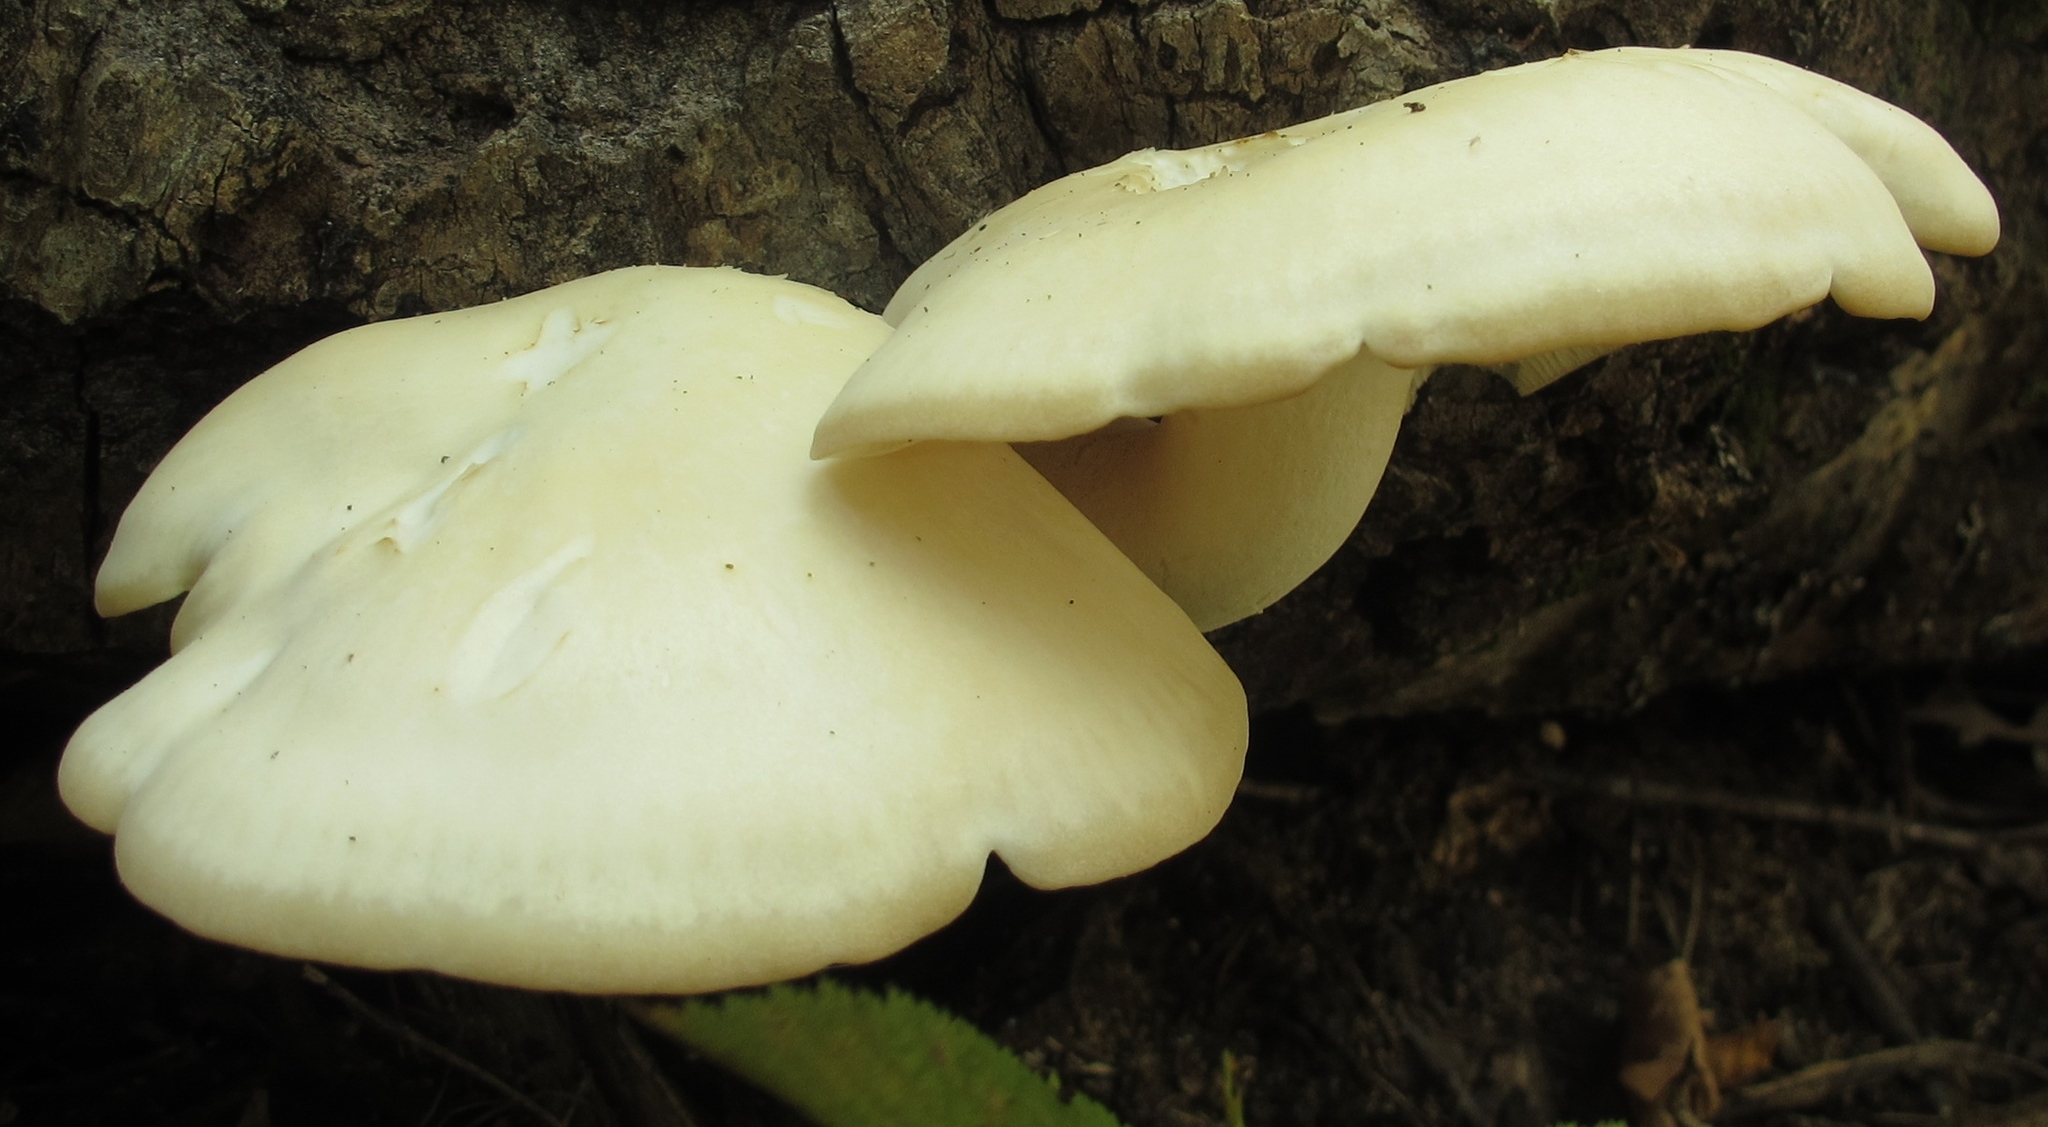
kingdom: Fungi
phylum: Basidiomycota
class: Agaricomycetes
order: Agaricales
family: Lyophyllaceae
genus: Hypsizygus
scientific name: Hypsizygus marmoreus
